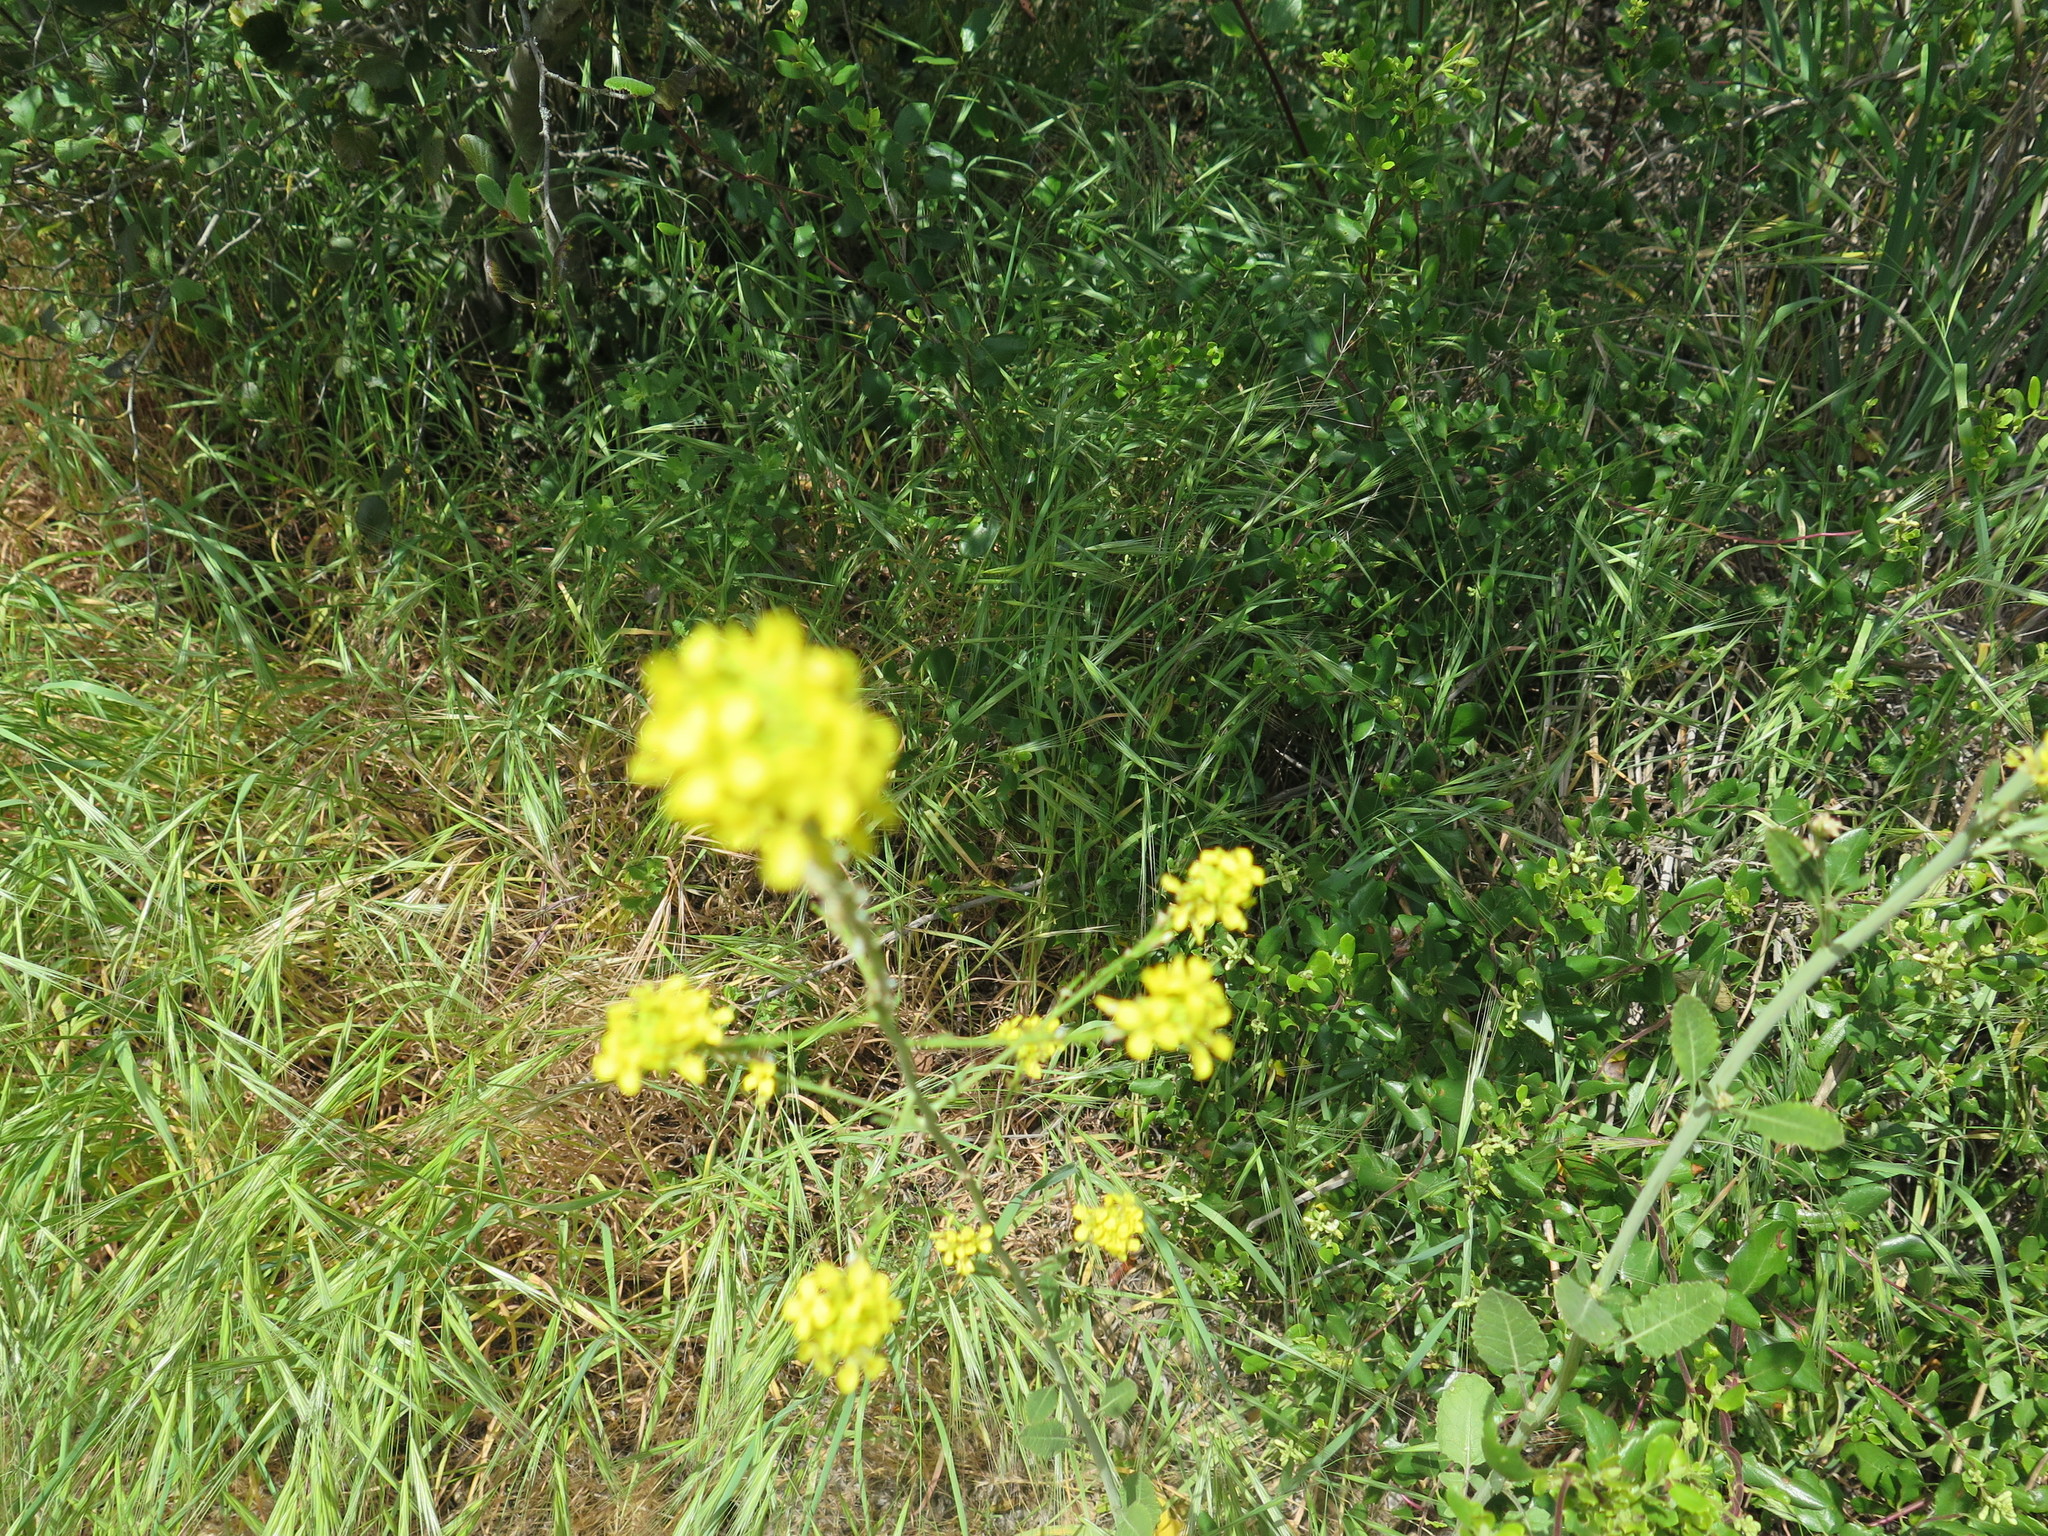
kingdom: Plantae
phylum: Tracheophyta
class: Magnoliopsida
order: Brassicales
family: Brassicaceae
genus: Hirschfeldia
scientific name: Hirschfeldia incana
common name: Hoary mustard
